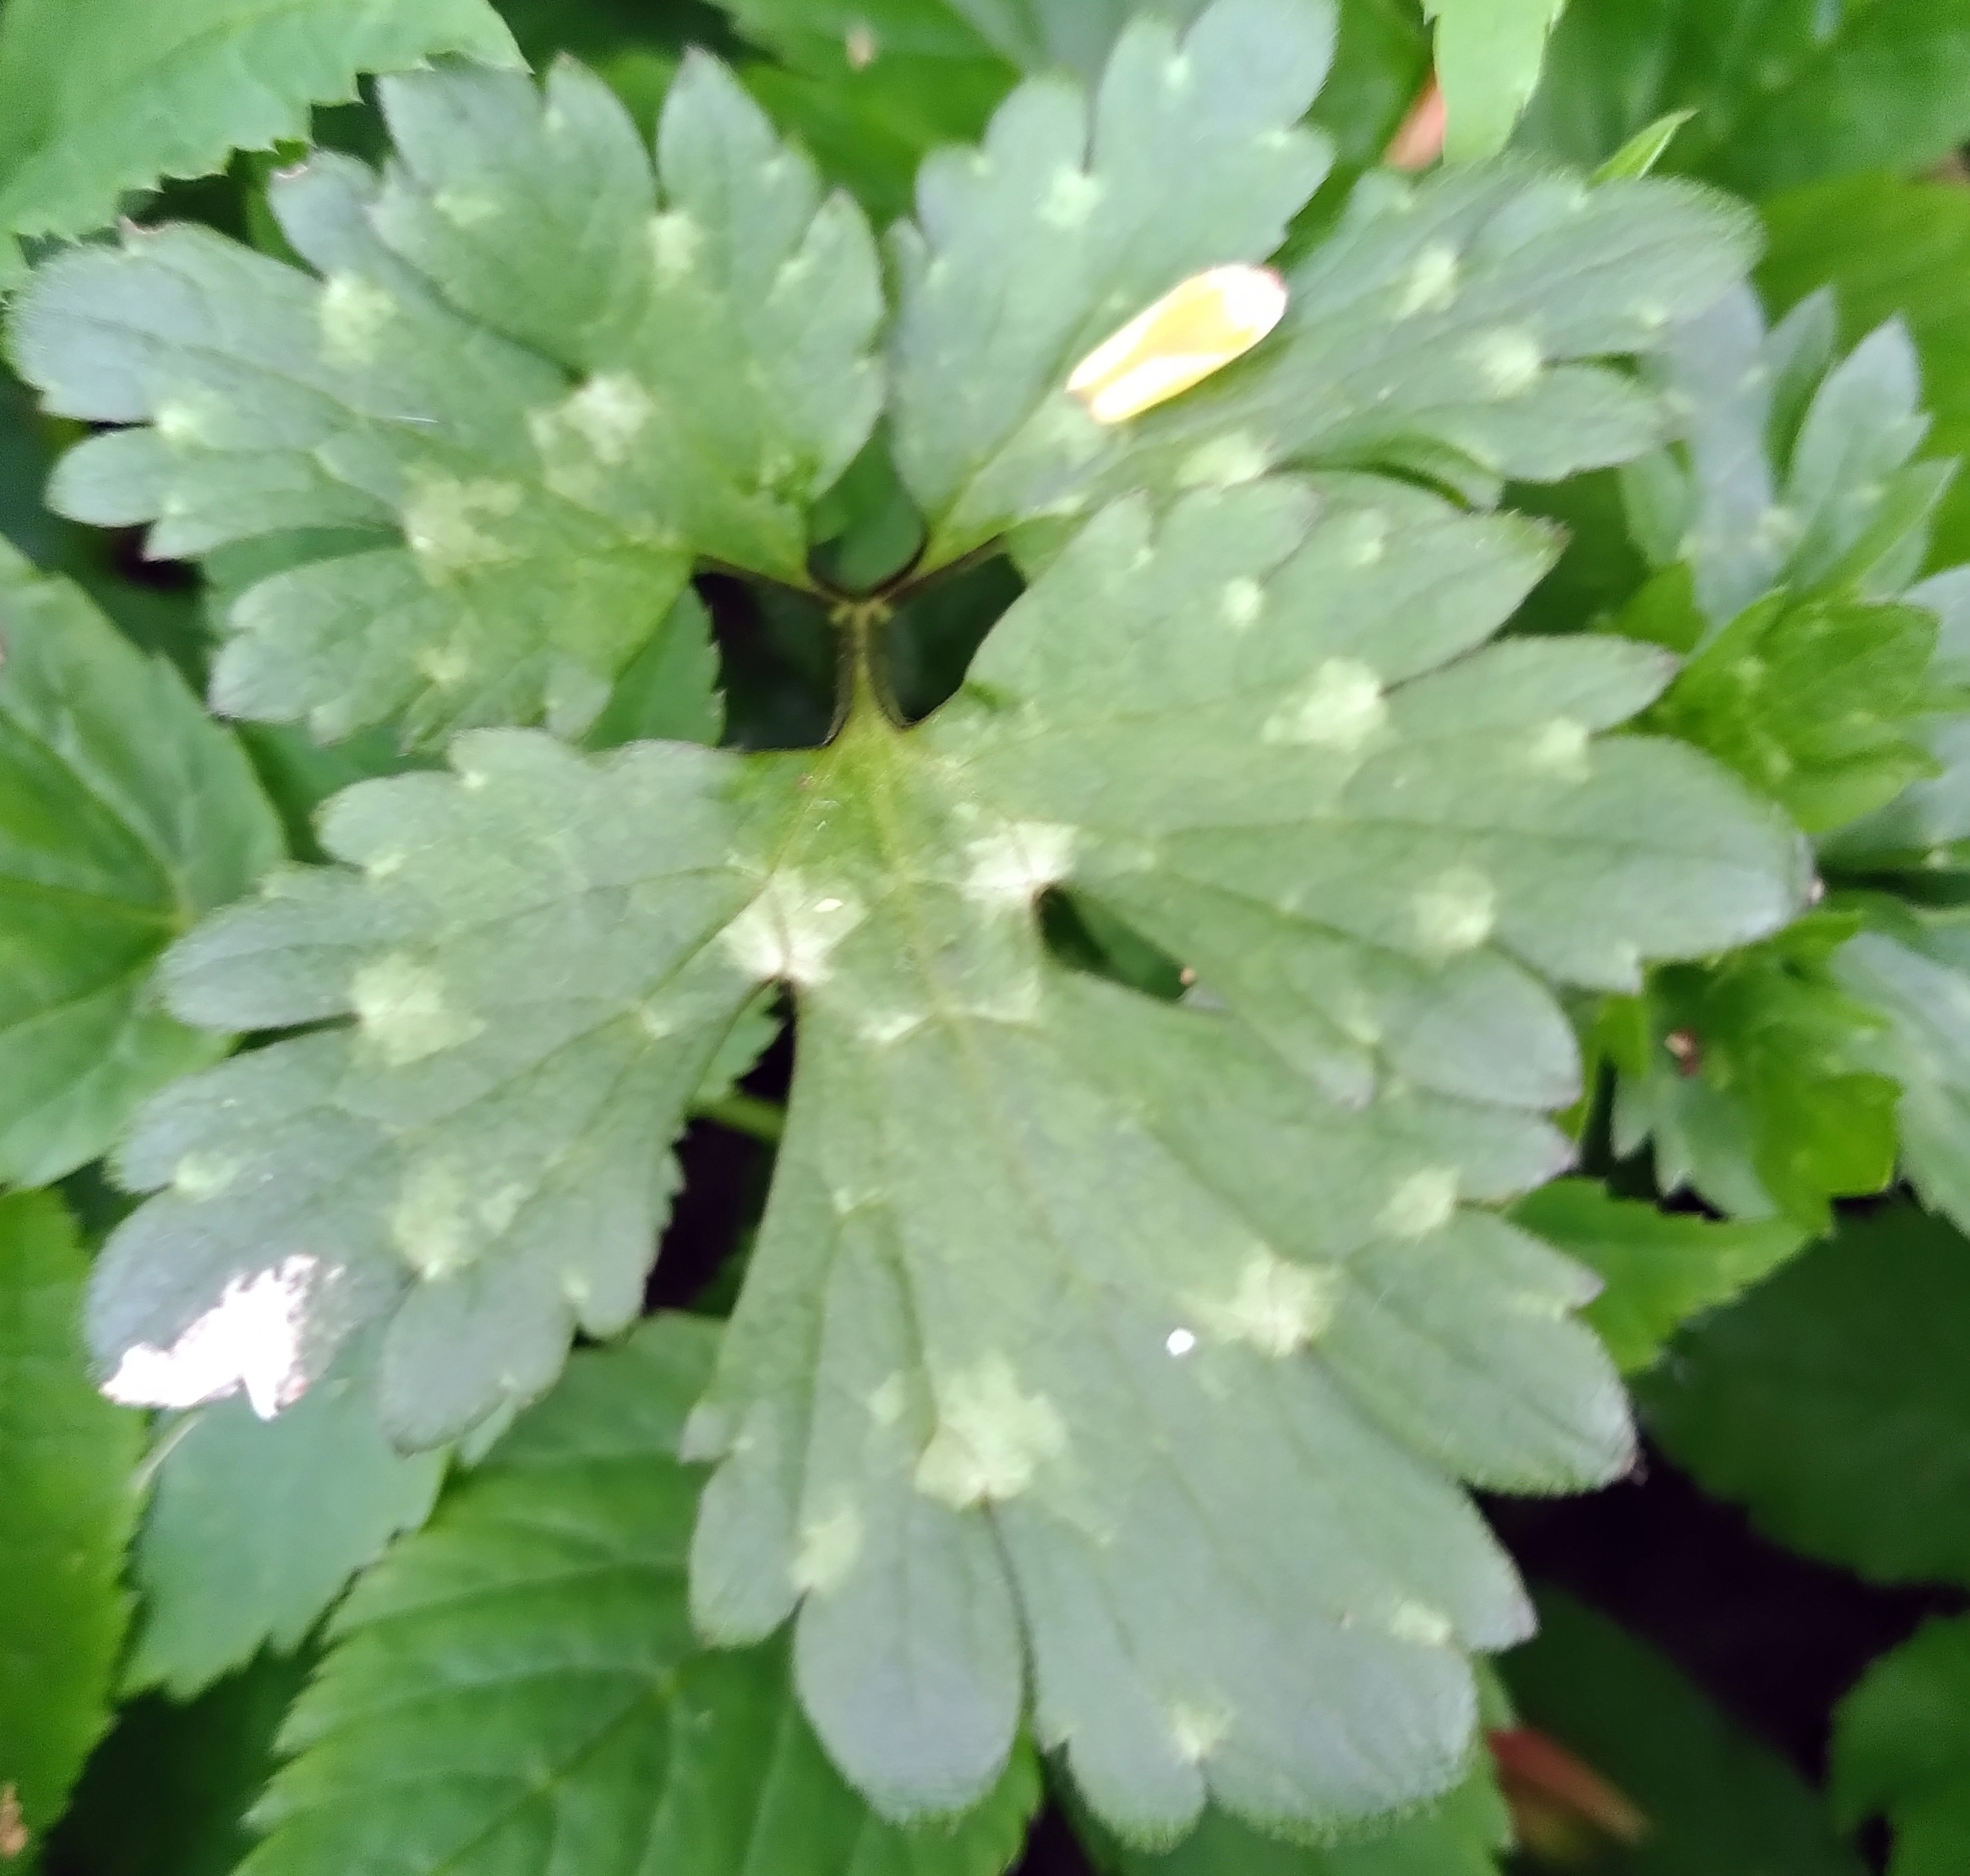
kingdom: Plantae
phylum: Tracheophyta
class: Magnoliopsida
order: Ranunculales
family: Ranunculaceae
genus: Ranunculus
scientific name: Ranunculus repens
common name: Creeping buttercup
